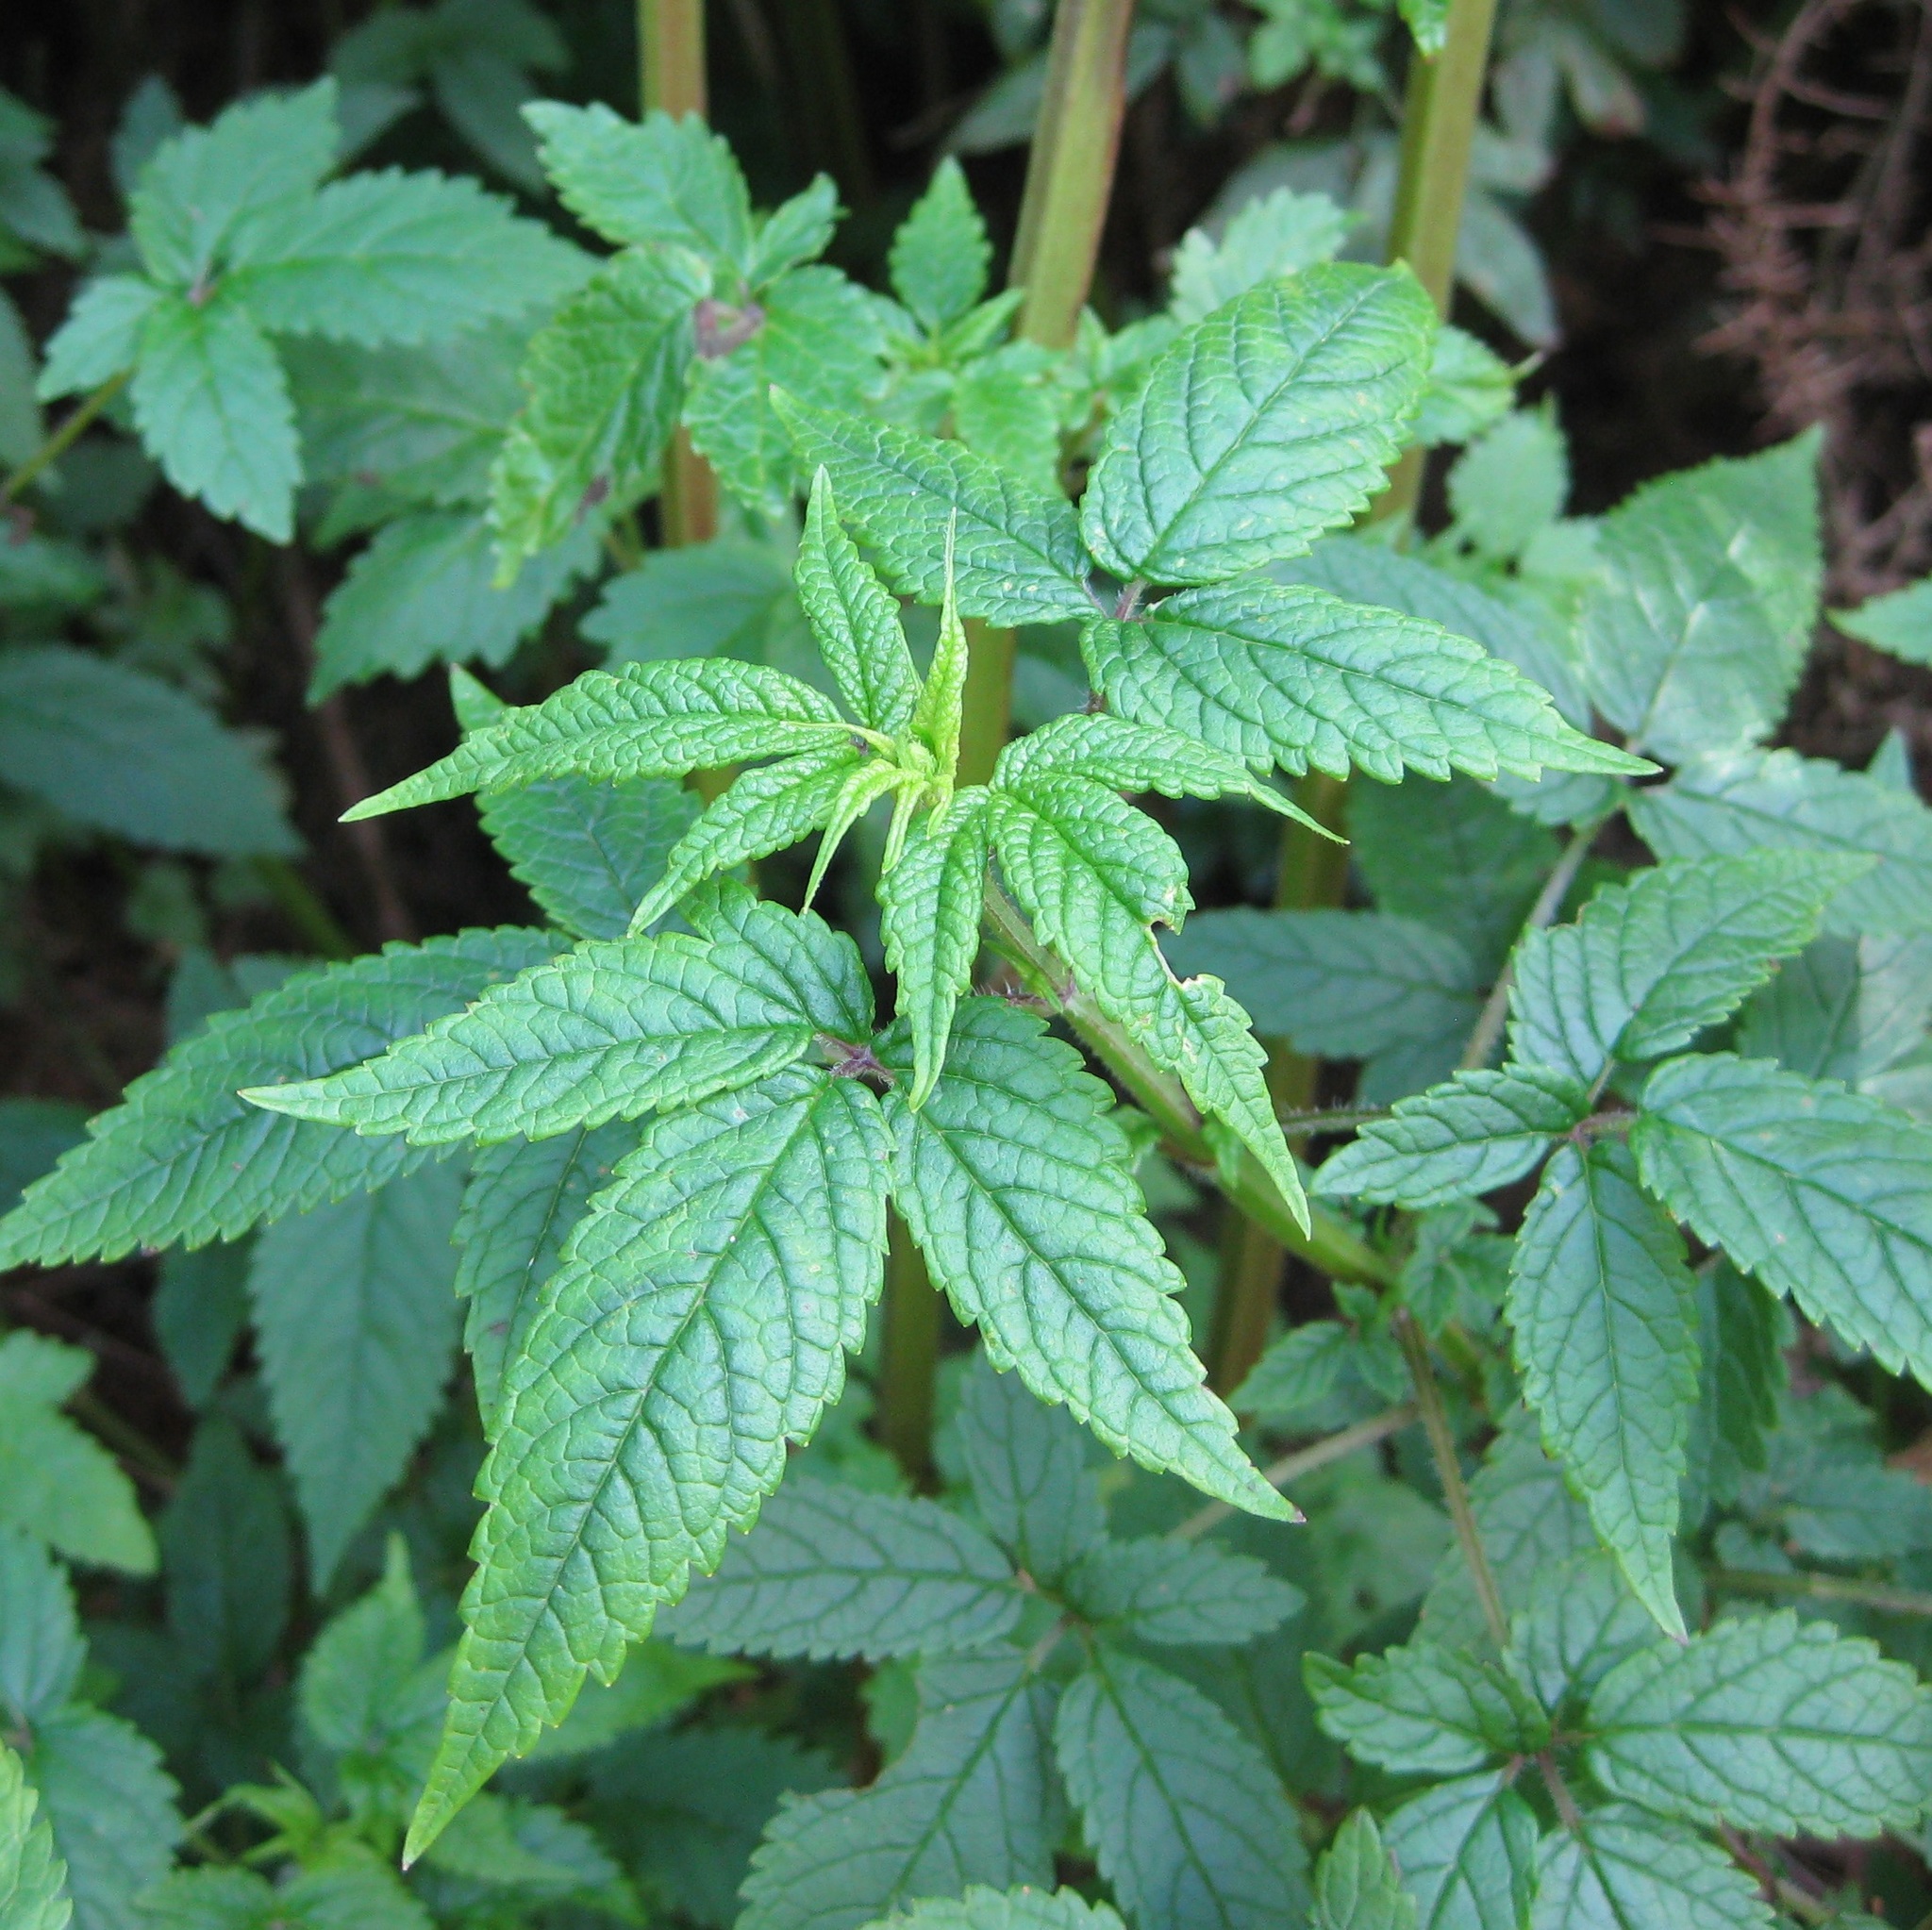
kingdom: Plantae
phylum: Tracheophyta
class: Magnoliopsida
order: Lamiales
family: Lamiaceae
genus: Cedronella
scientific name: Cedronella canariensis
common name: Canary islands balm
